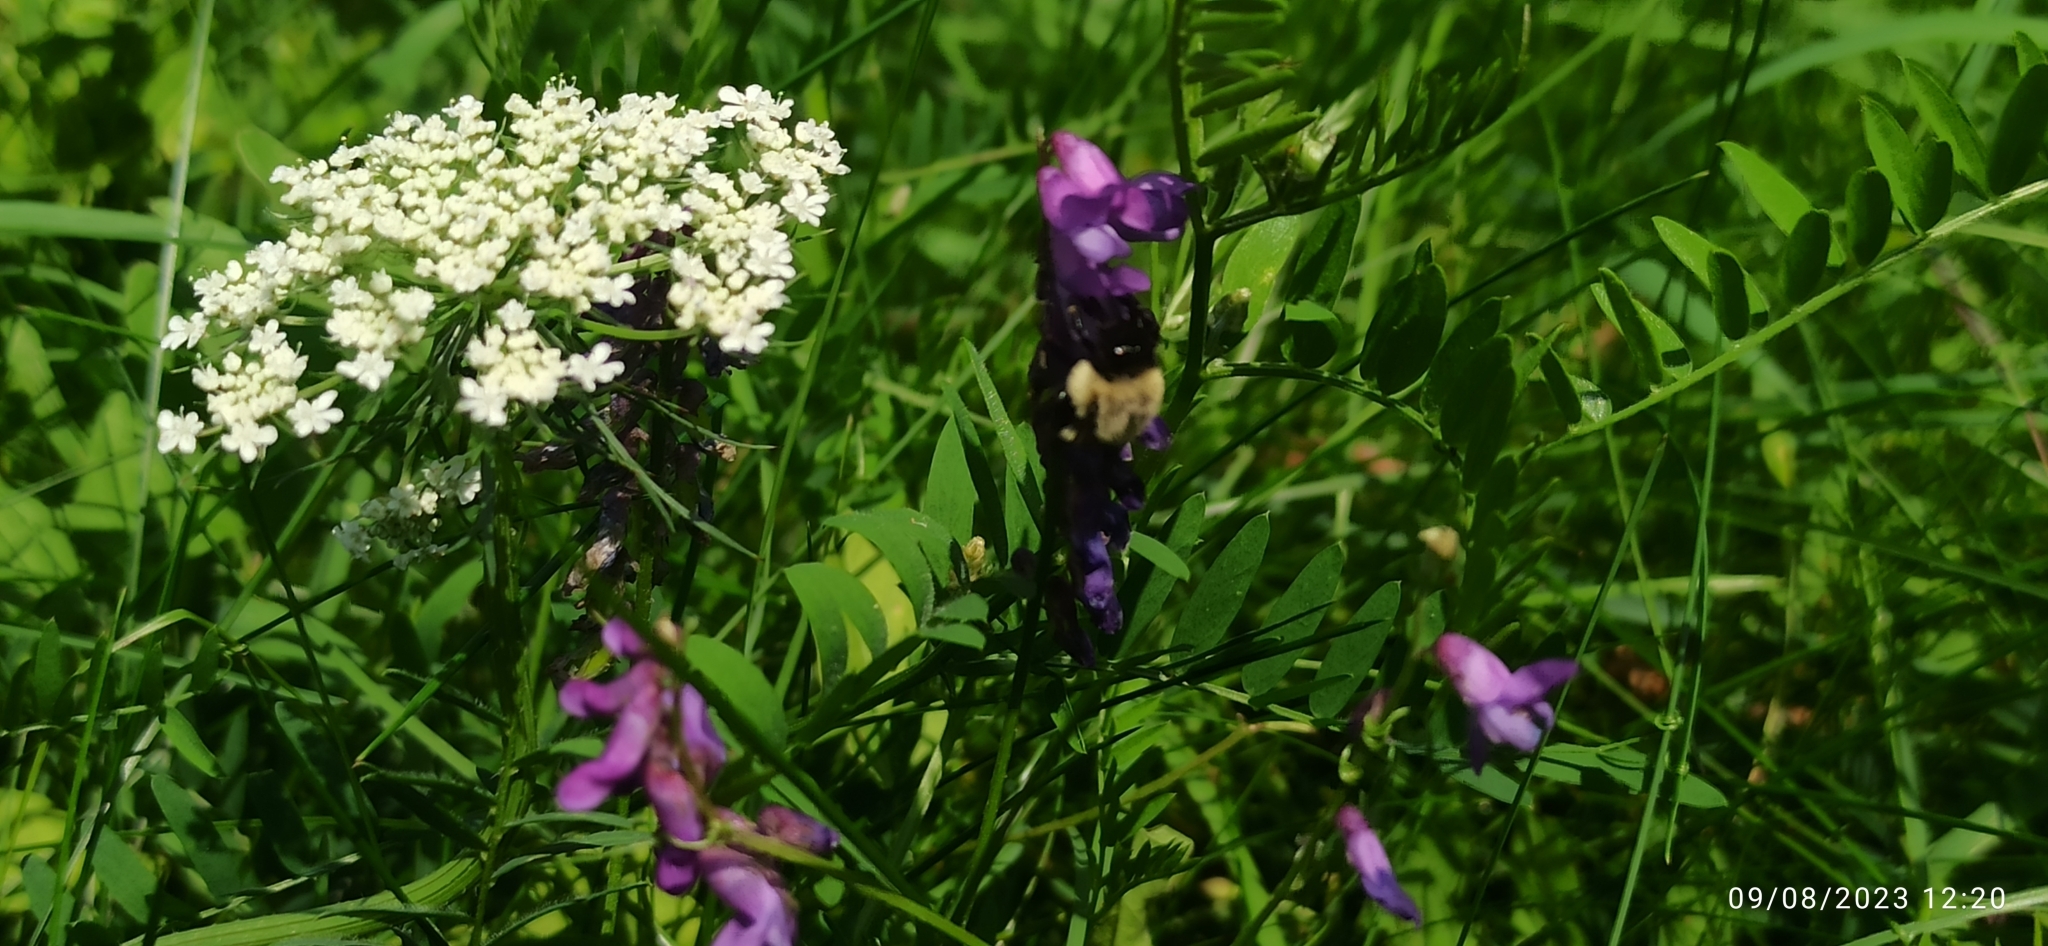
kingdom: Animalia
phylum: Arthropoda
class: Insecta
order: Hymenoptera
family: Apidae
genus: Bombus
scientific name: Bombus impatiens
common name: Common eastern bumble bee
